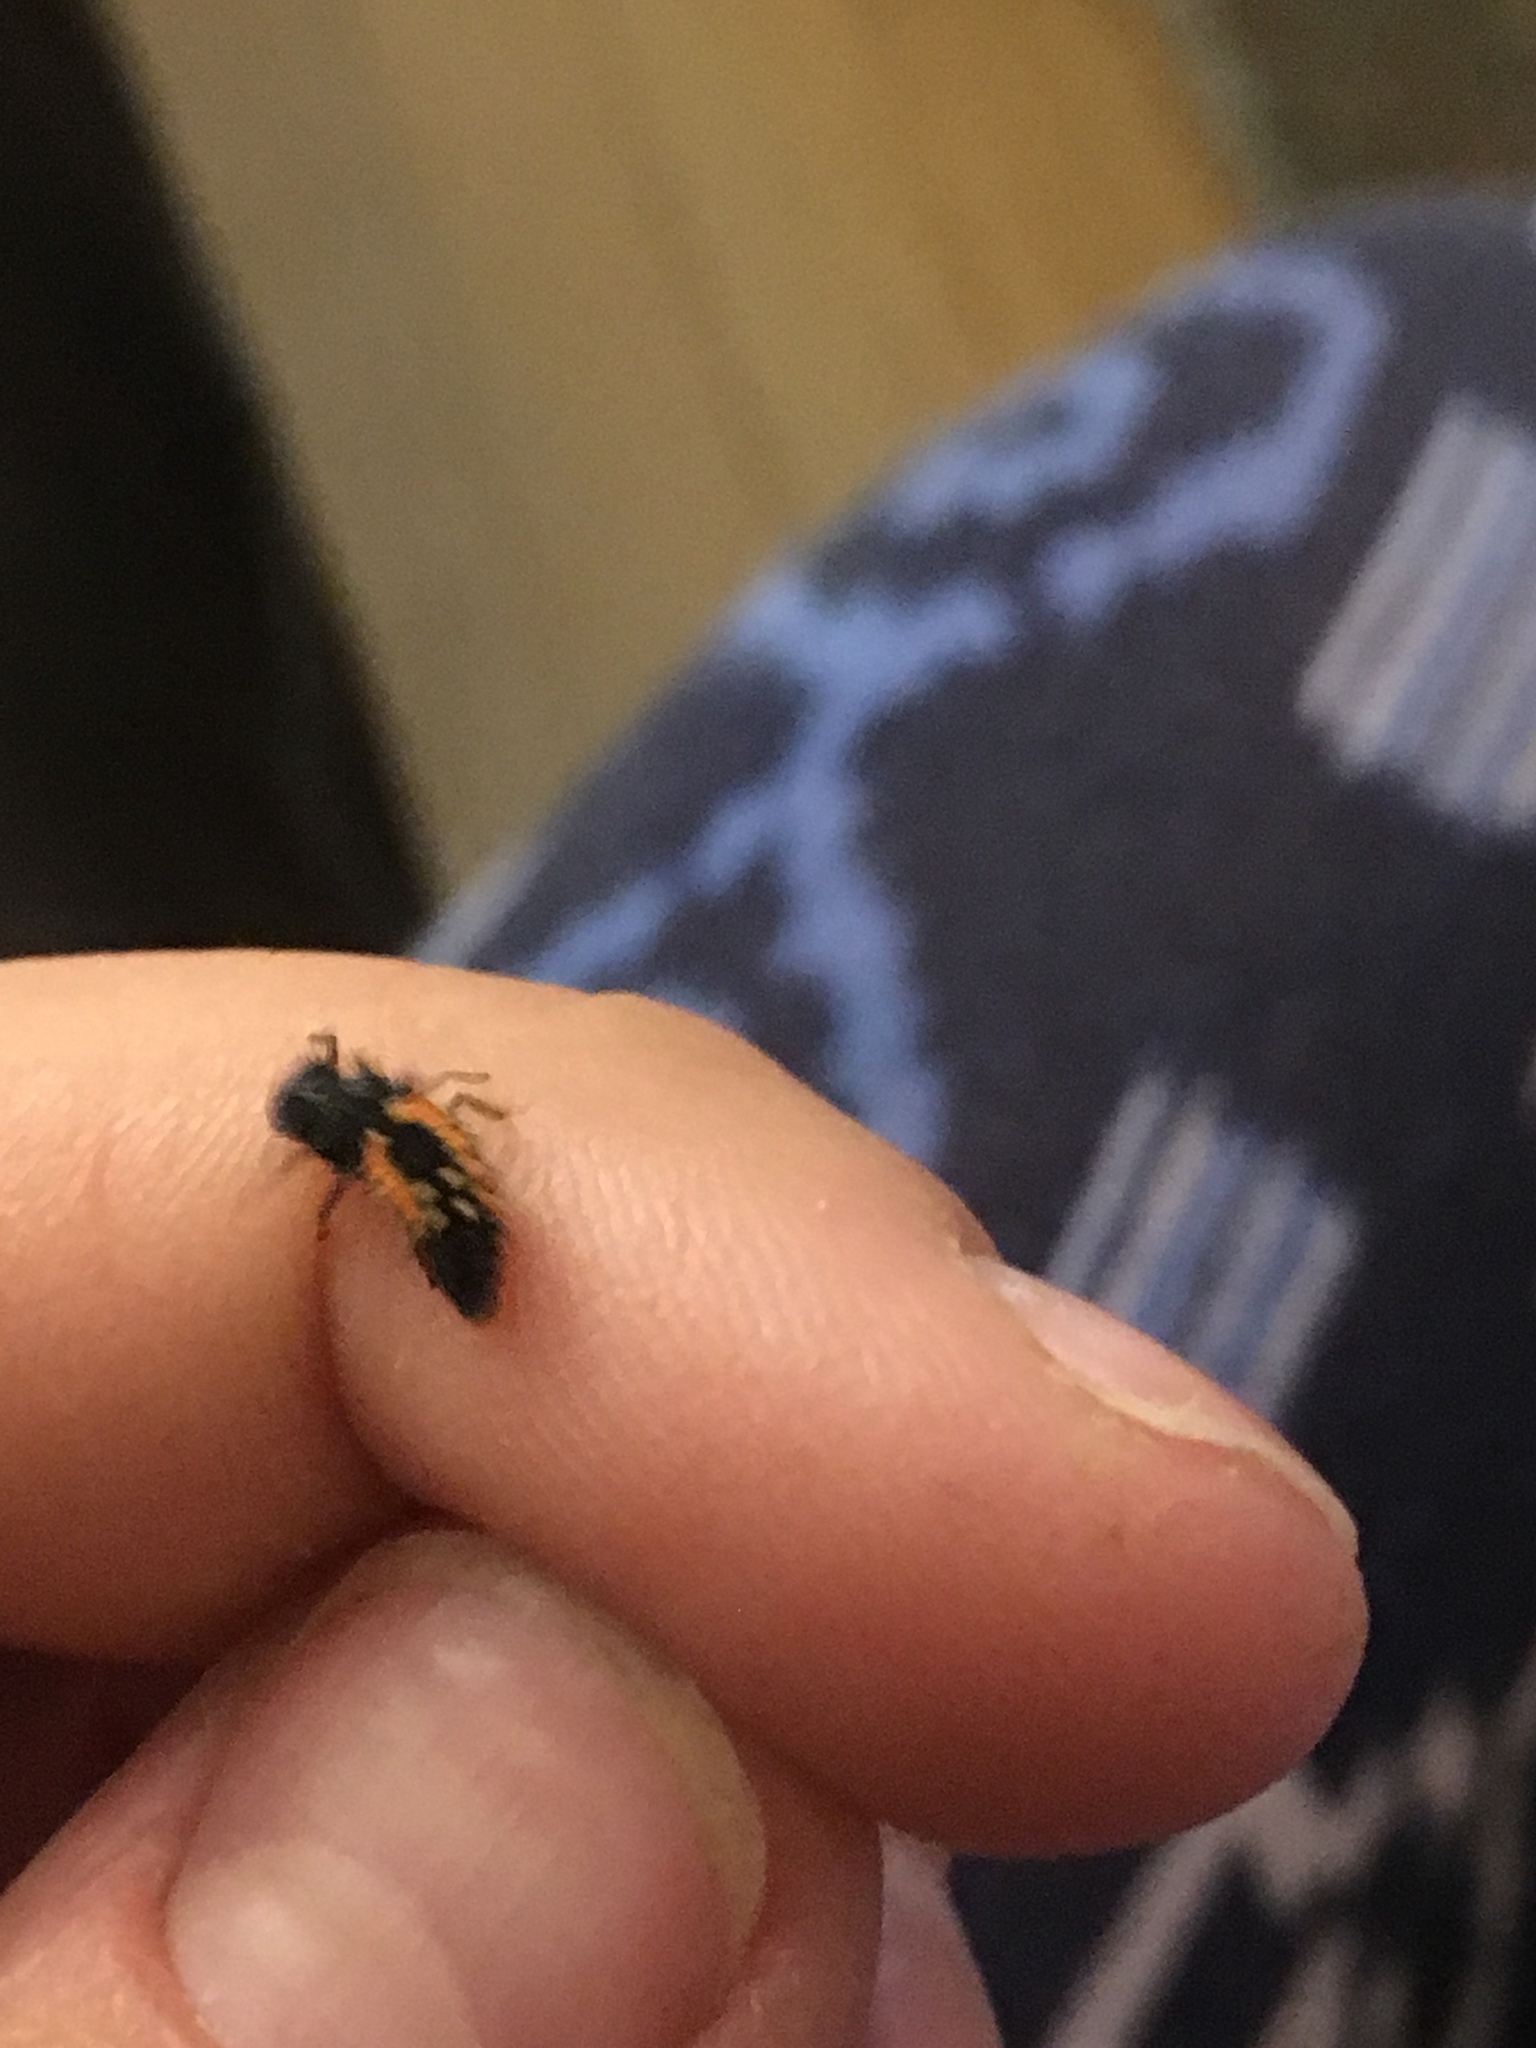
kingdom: Animalia
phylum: Arthropoda
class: Insecta
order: Coleoptera
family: Coccinellidae
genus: Harmonia
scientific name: Harmonia axyridis
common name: Harlequin ladybird
